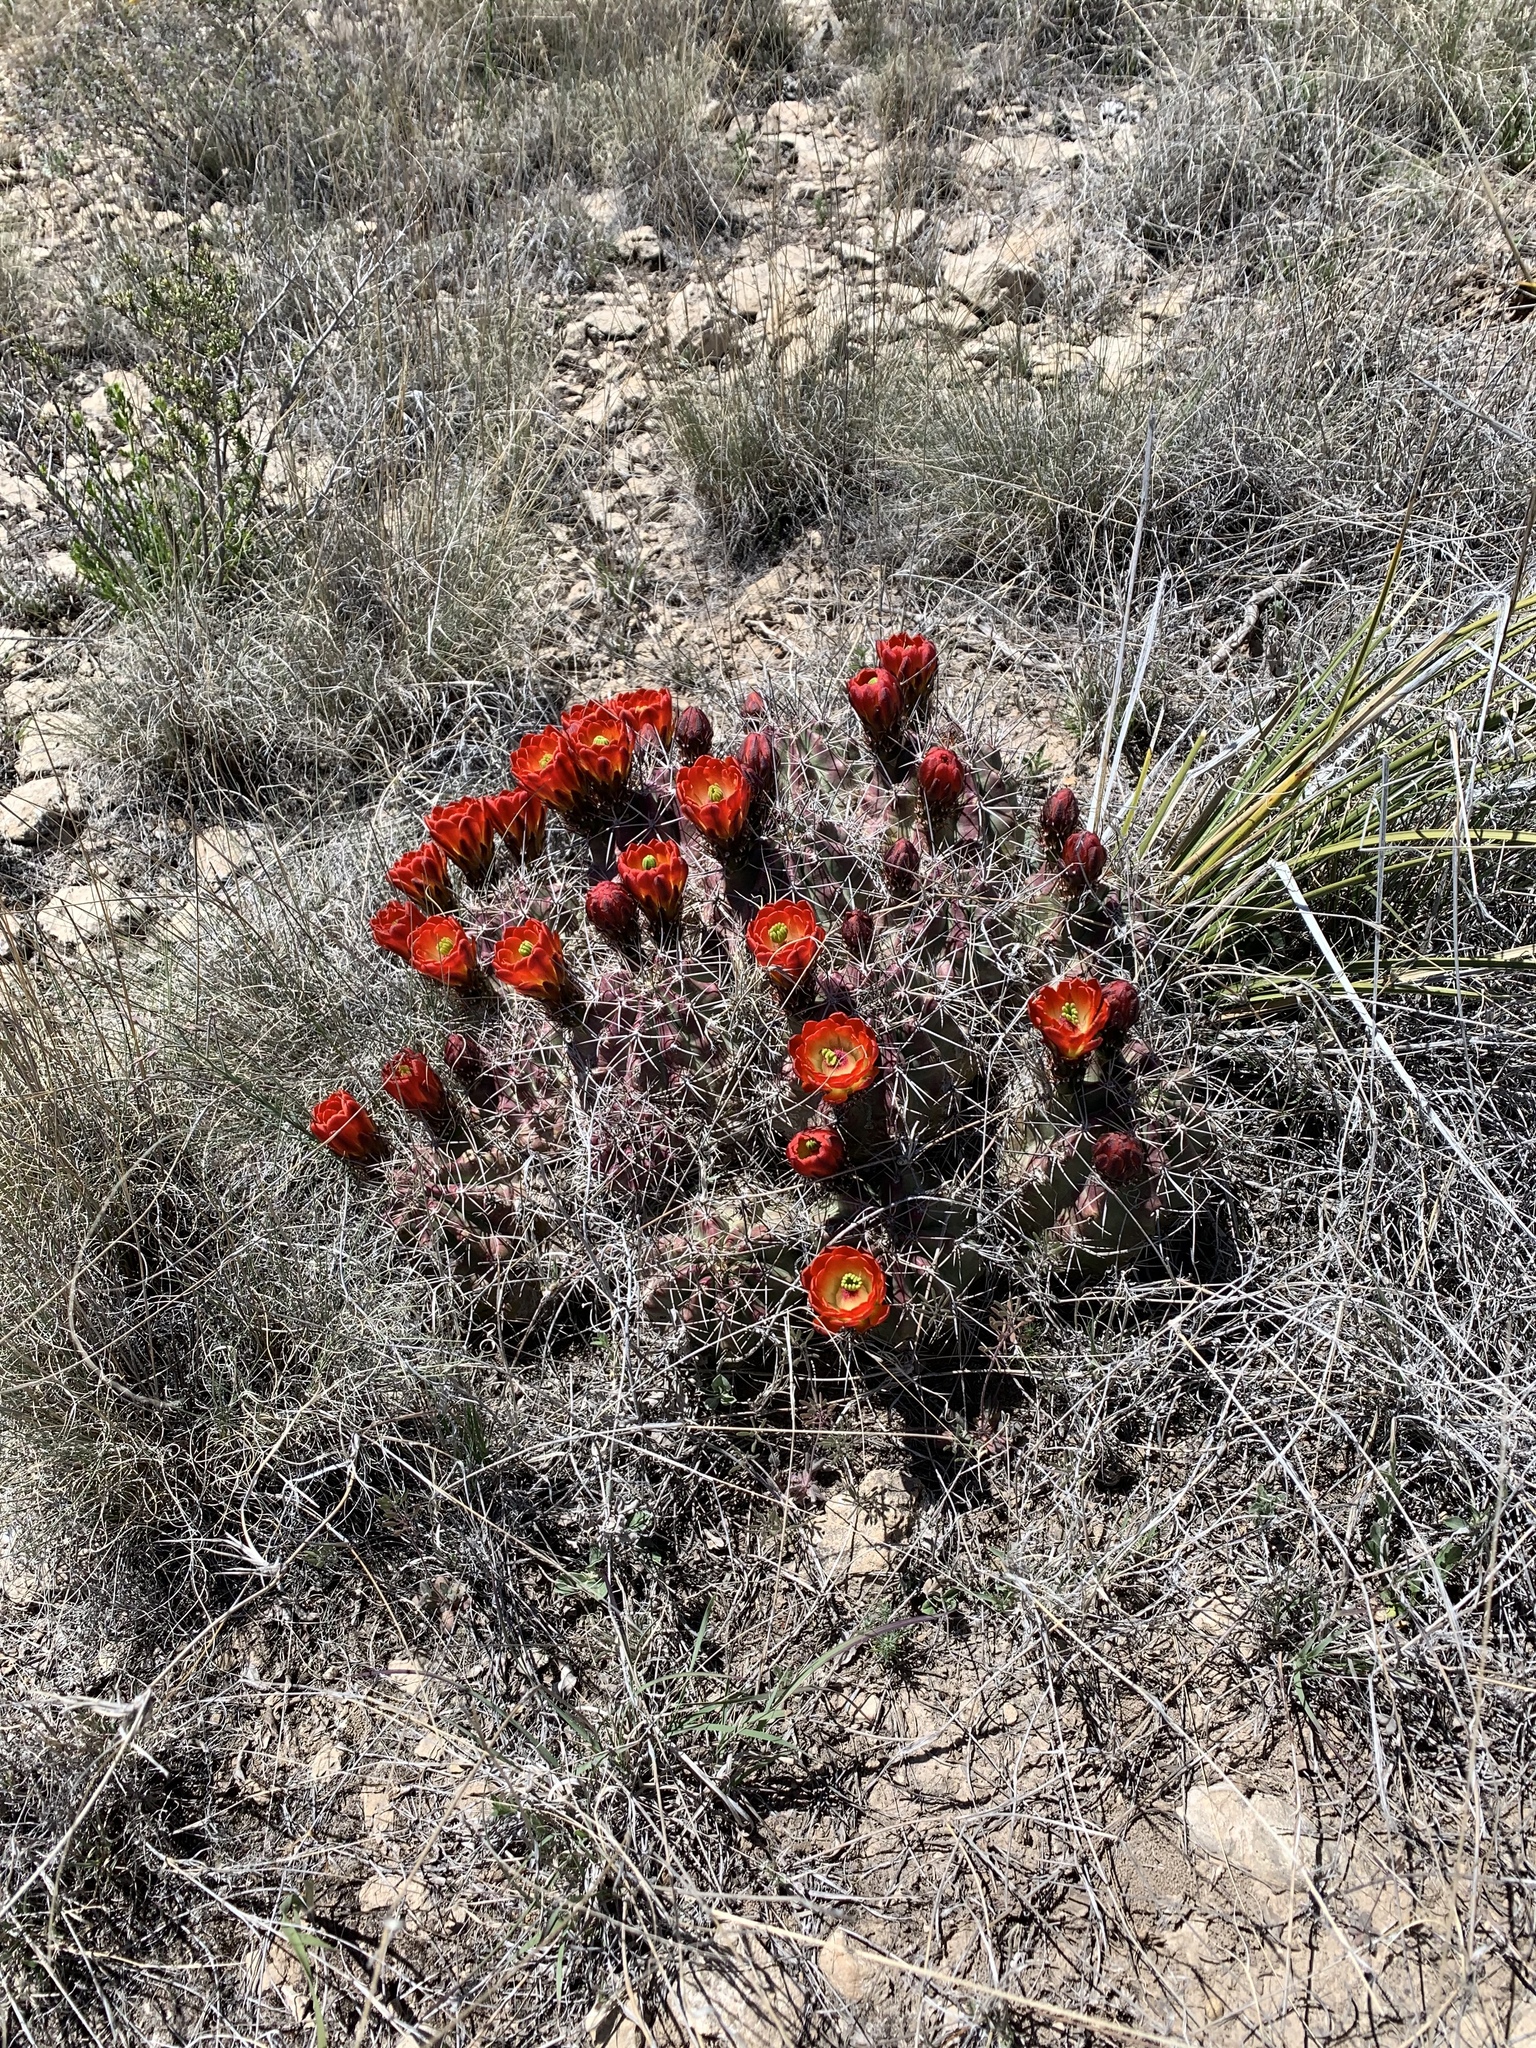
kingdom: Plantae
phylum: Tracheophyta
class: Magnoliopsida
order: Caryophyllales
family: Cactaceae
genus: Echinocereus
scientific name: Echinocereus coccineus
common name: Scarlet hedgehog cactus
